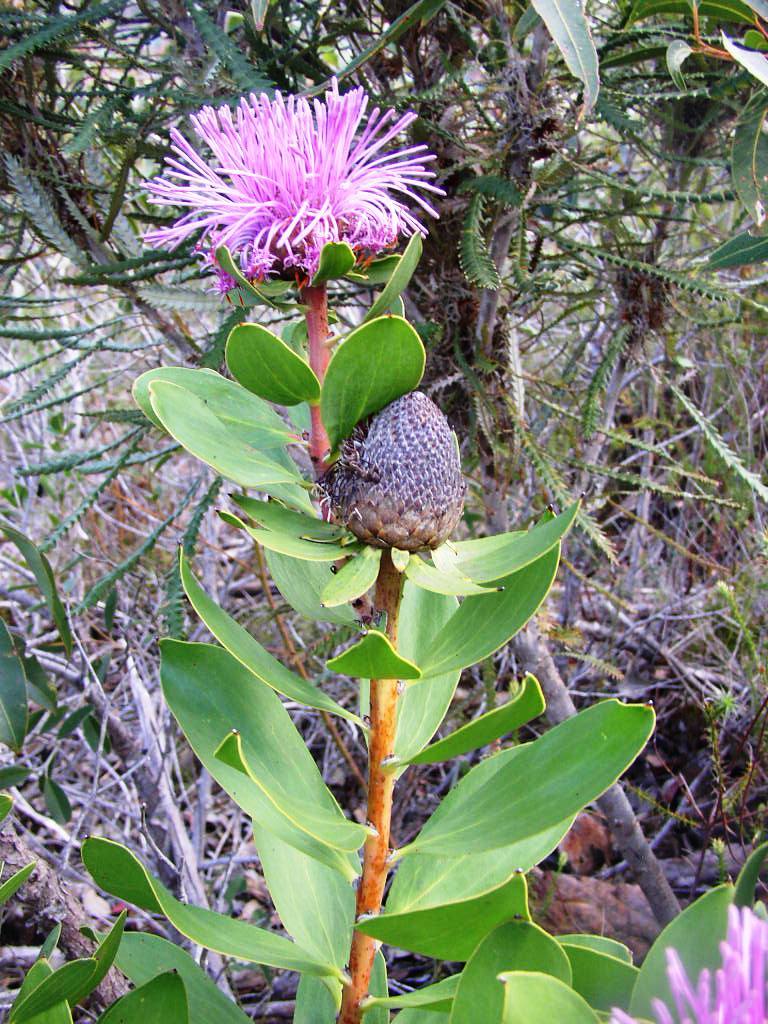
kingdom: Plantae
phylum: Tracheophyta
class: Magnoliopsida
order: Proteales
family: Proteaceae
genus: Isopogon
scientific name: Isopogon cuneatus
